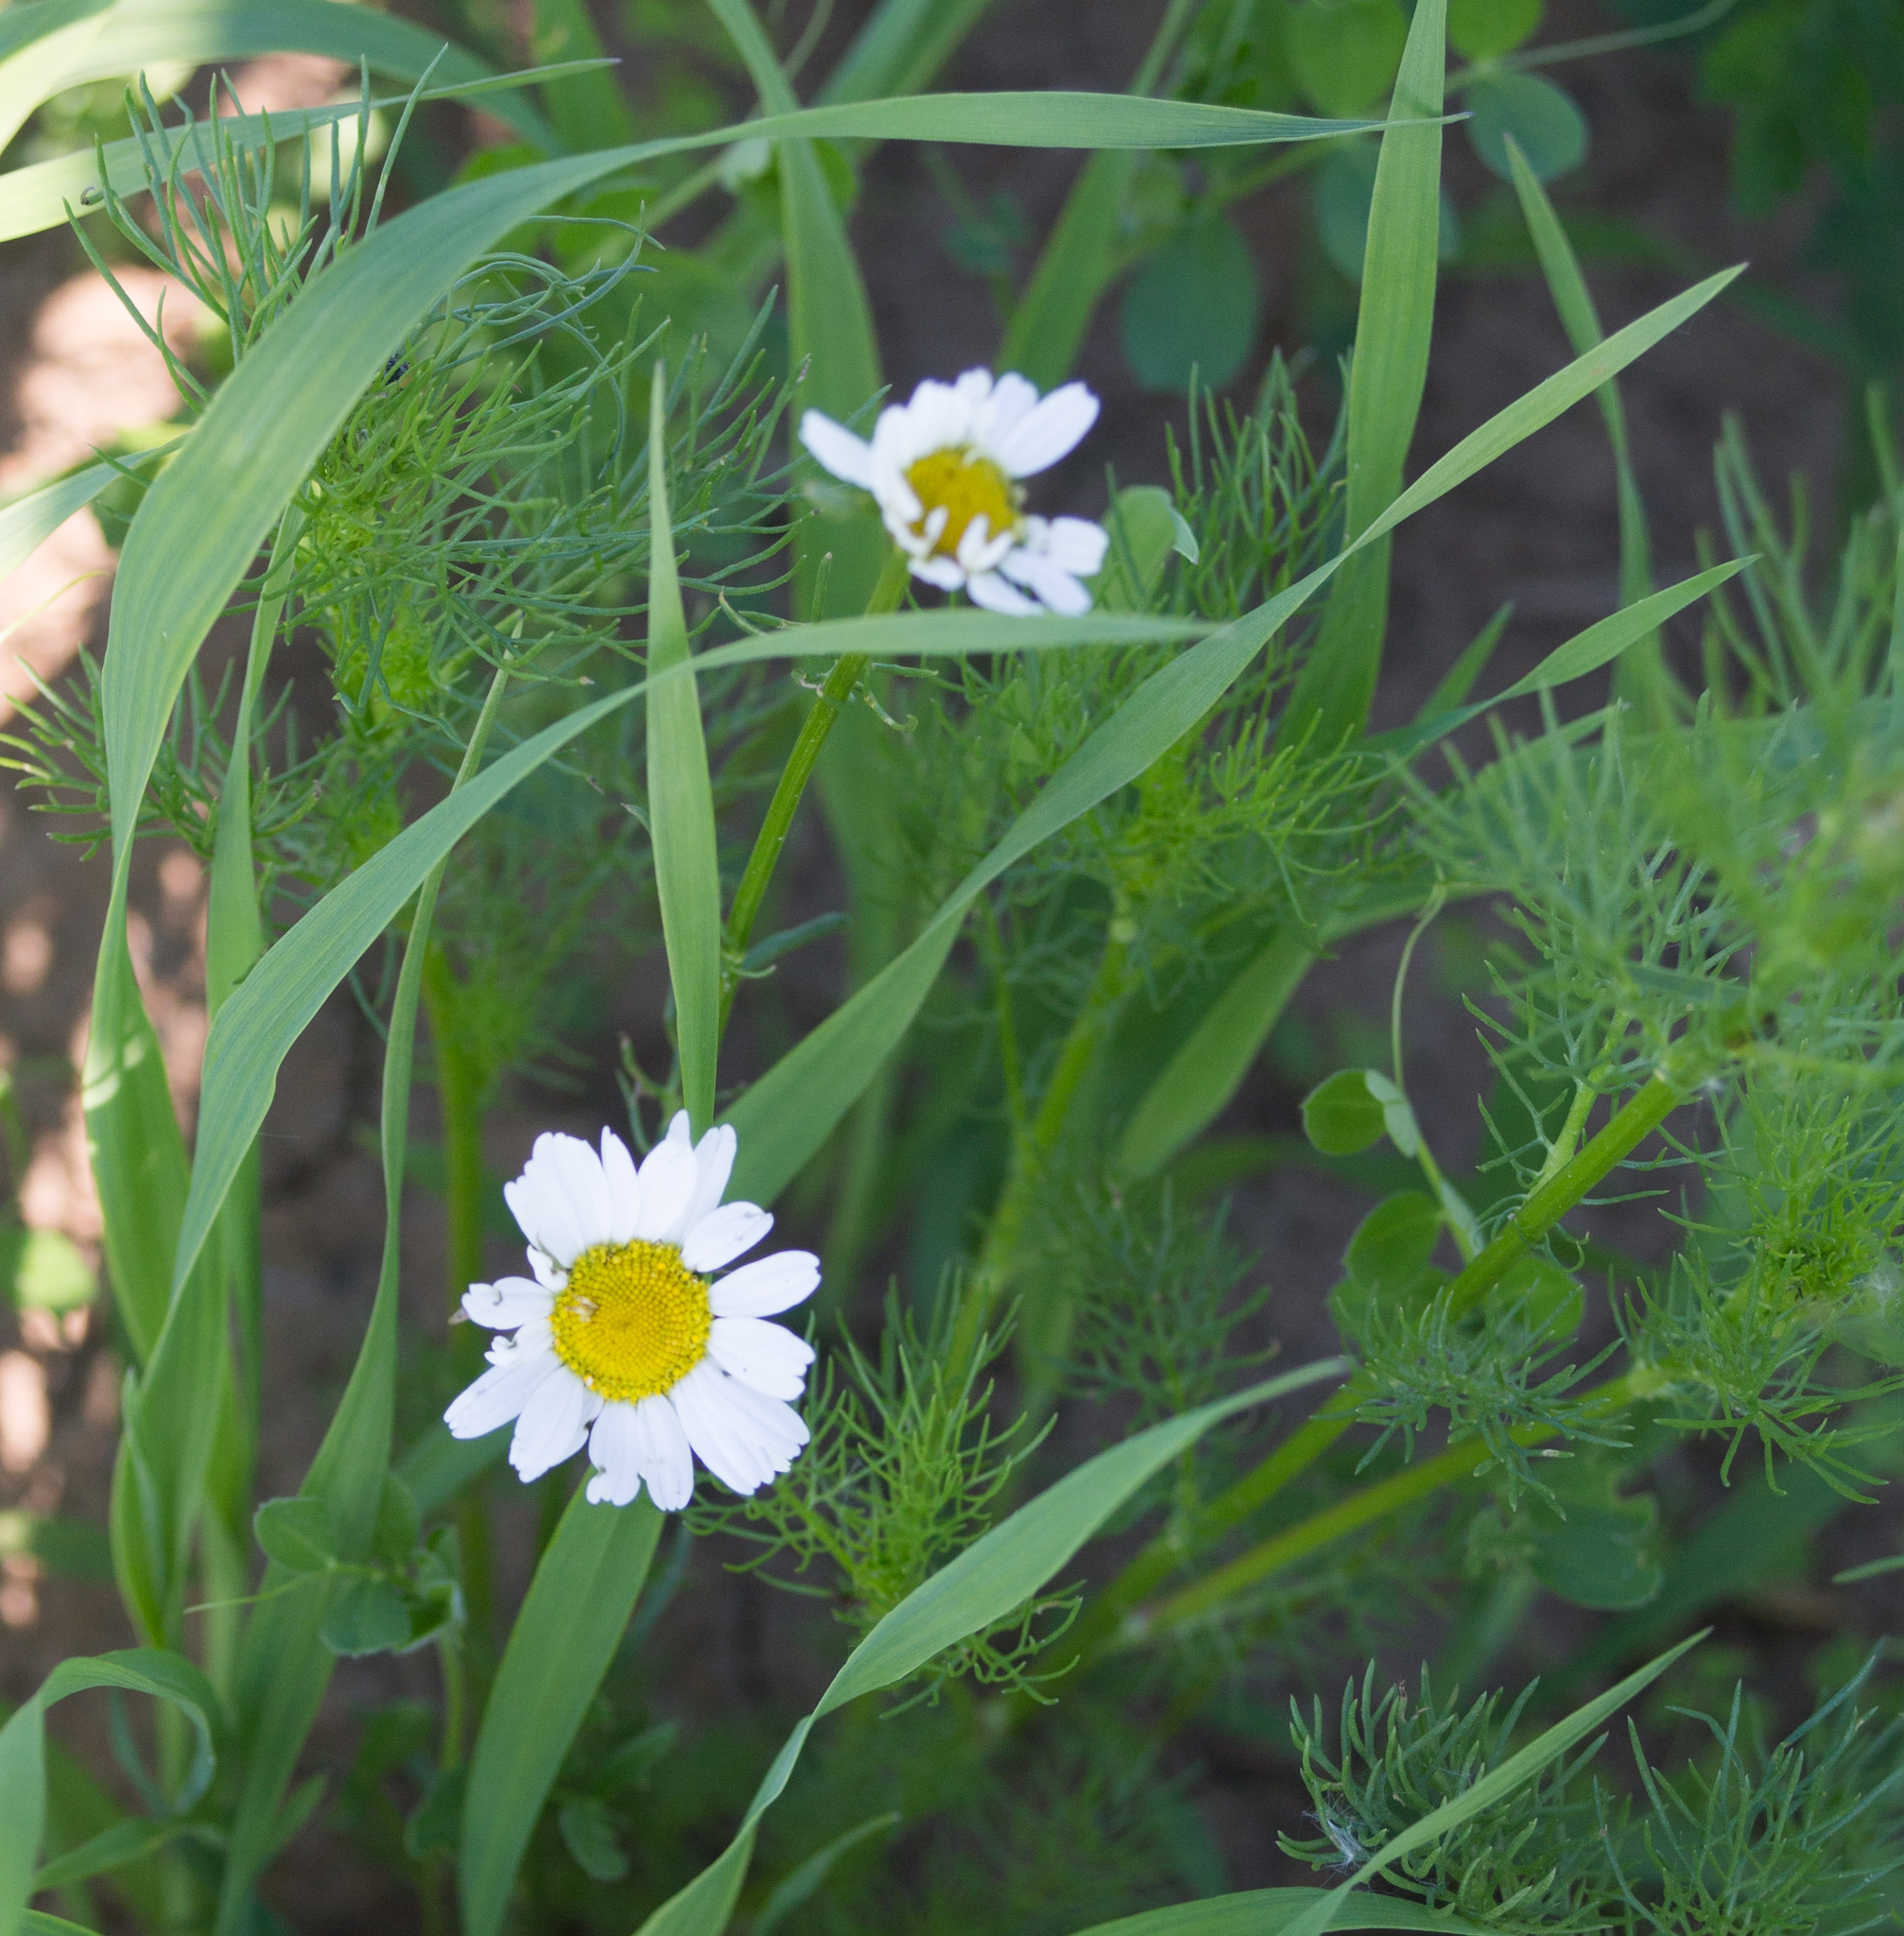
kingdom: Plantae
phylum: Tracheophyta
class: Magnoliopsida
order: Asterales
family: Asteraceae
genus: Tripleurospermum
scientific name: Tripleurospermum inodorum
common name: Scentless mayweed
